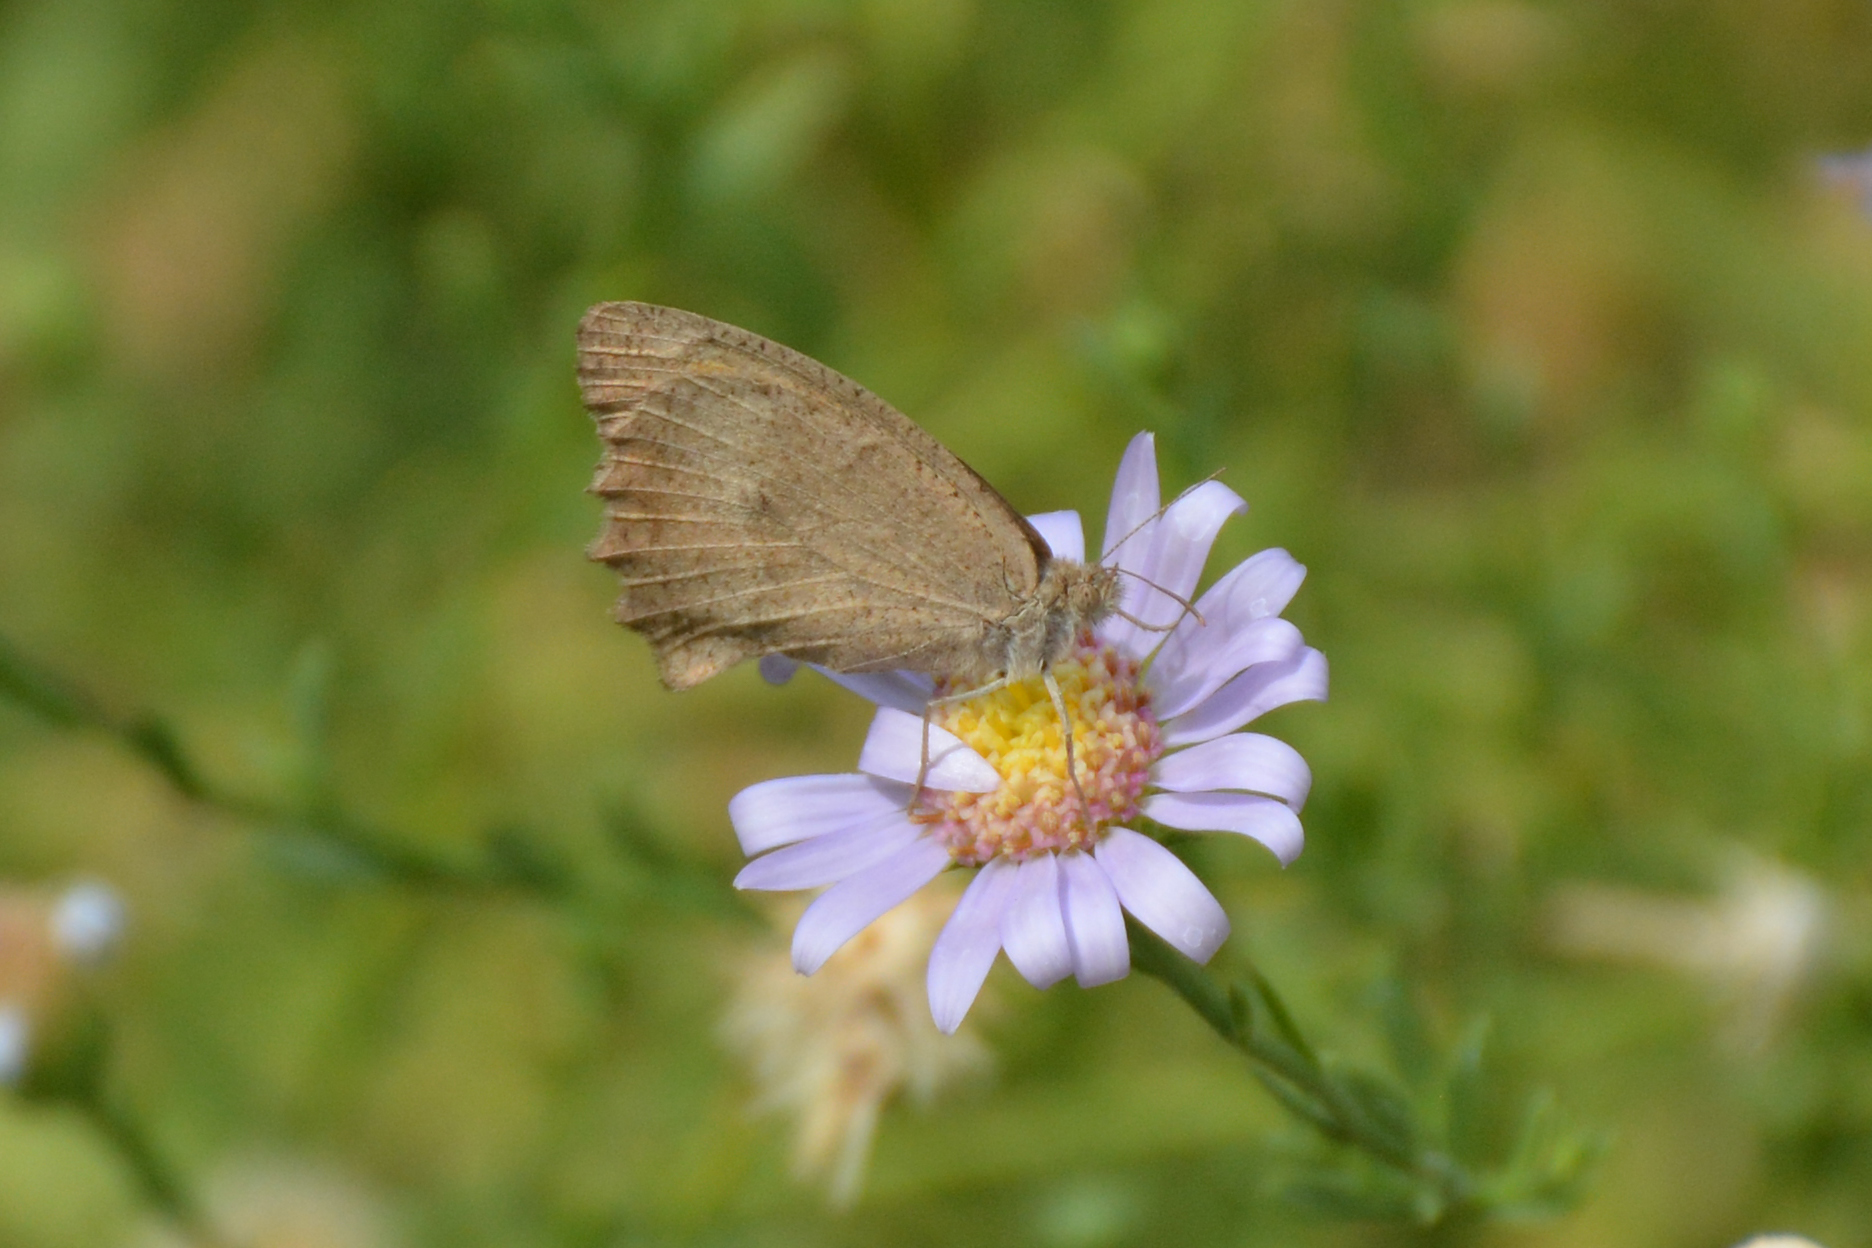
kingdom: Animalia
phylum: Arthropoda
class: Insecta
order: Lepidoptera
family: Nymphalidae
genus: Hyponephele
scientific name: Hyponephele lupinus
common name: Oriental meadow brown
